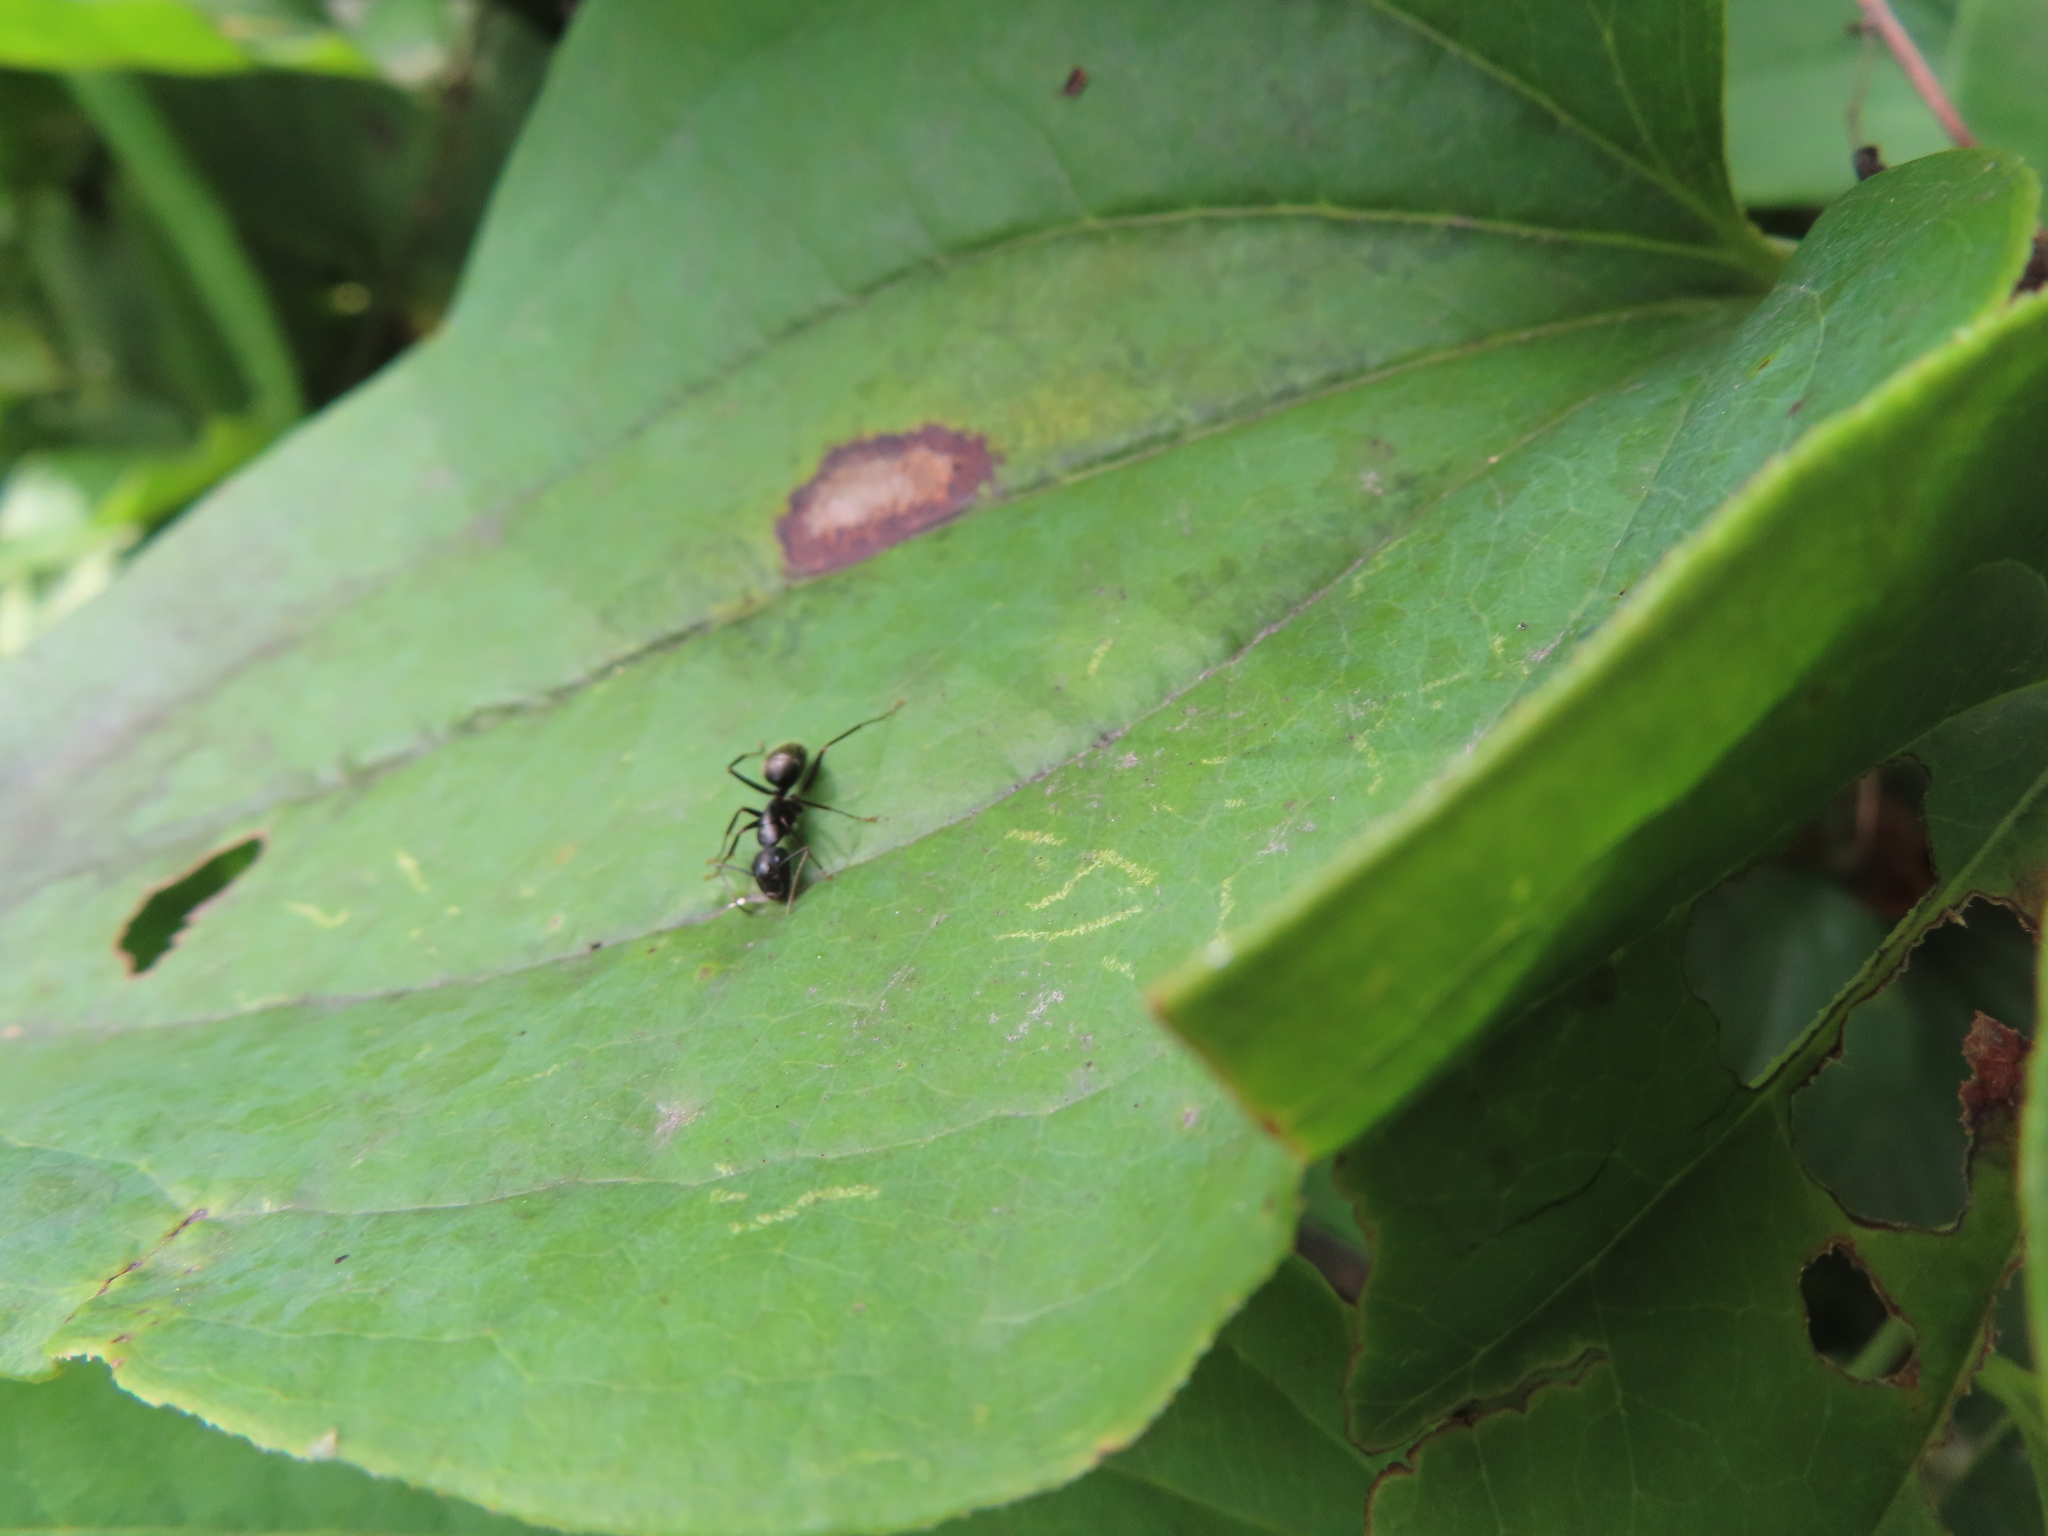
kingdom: Animalia
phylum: Arthropoda
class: Insecta
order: Hymenoptera
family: Formicidae
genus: Camponotus
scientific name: Camponotus pennsylvanicus
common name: Black carpenter ant
